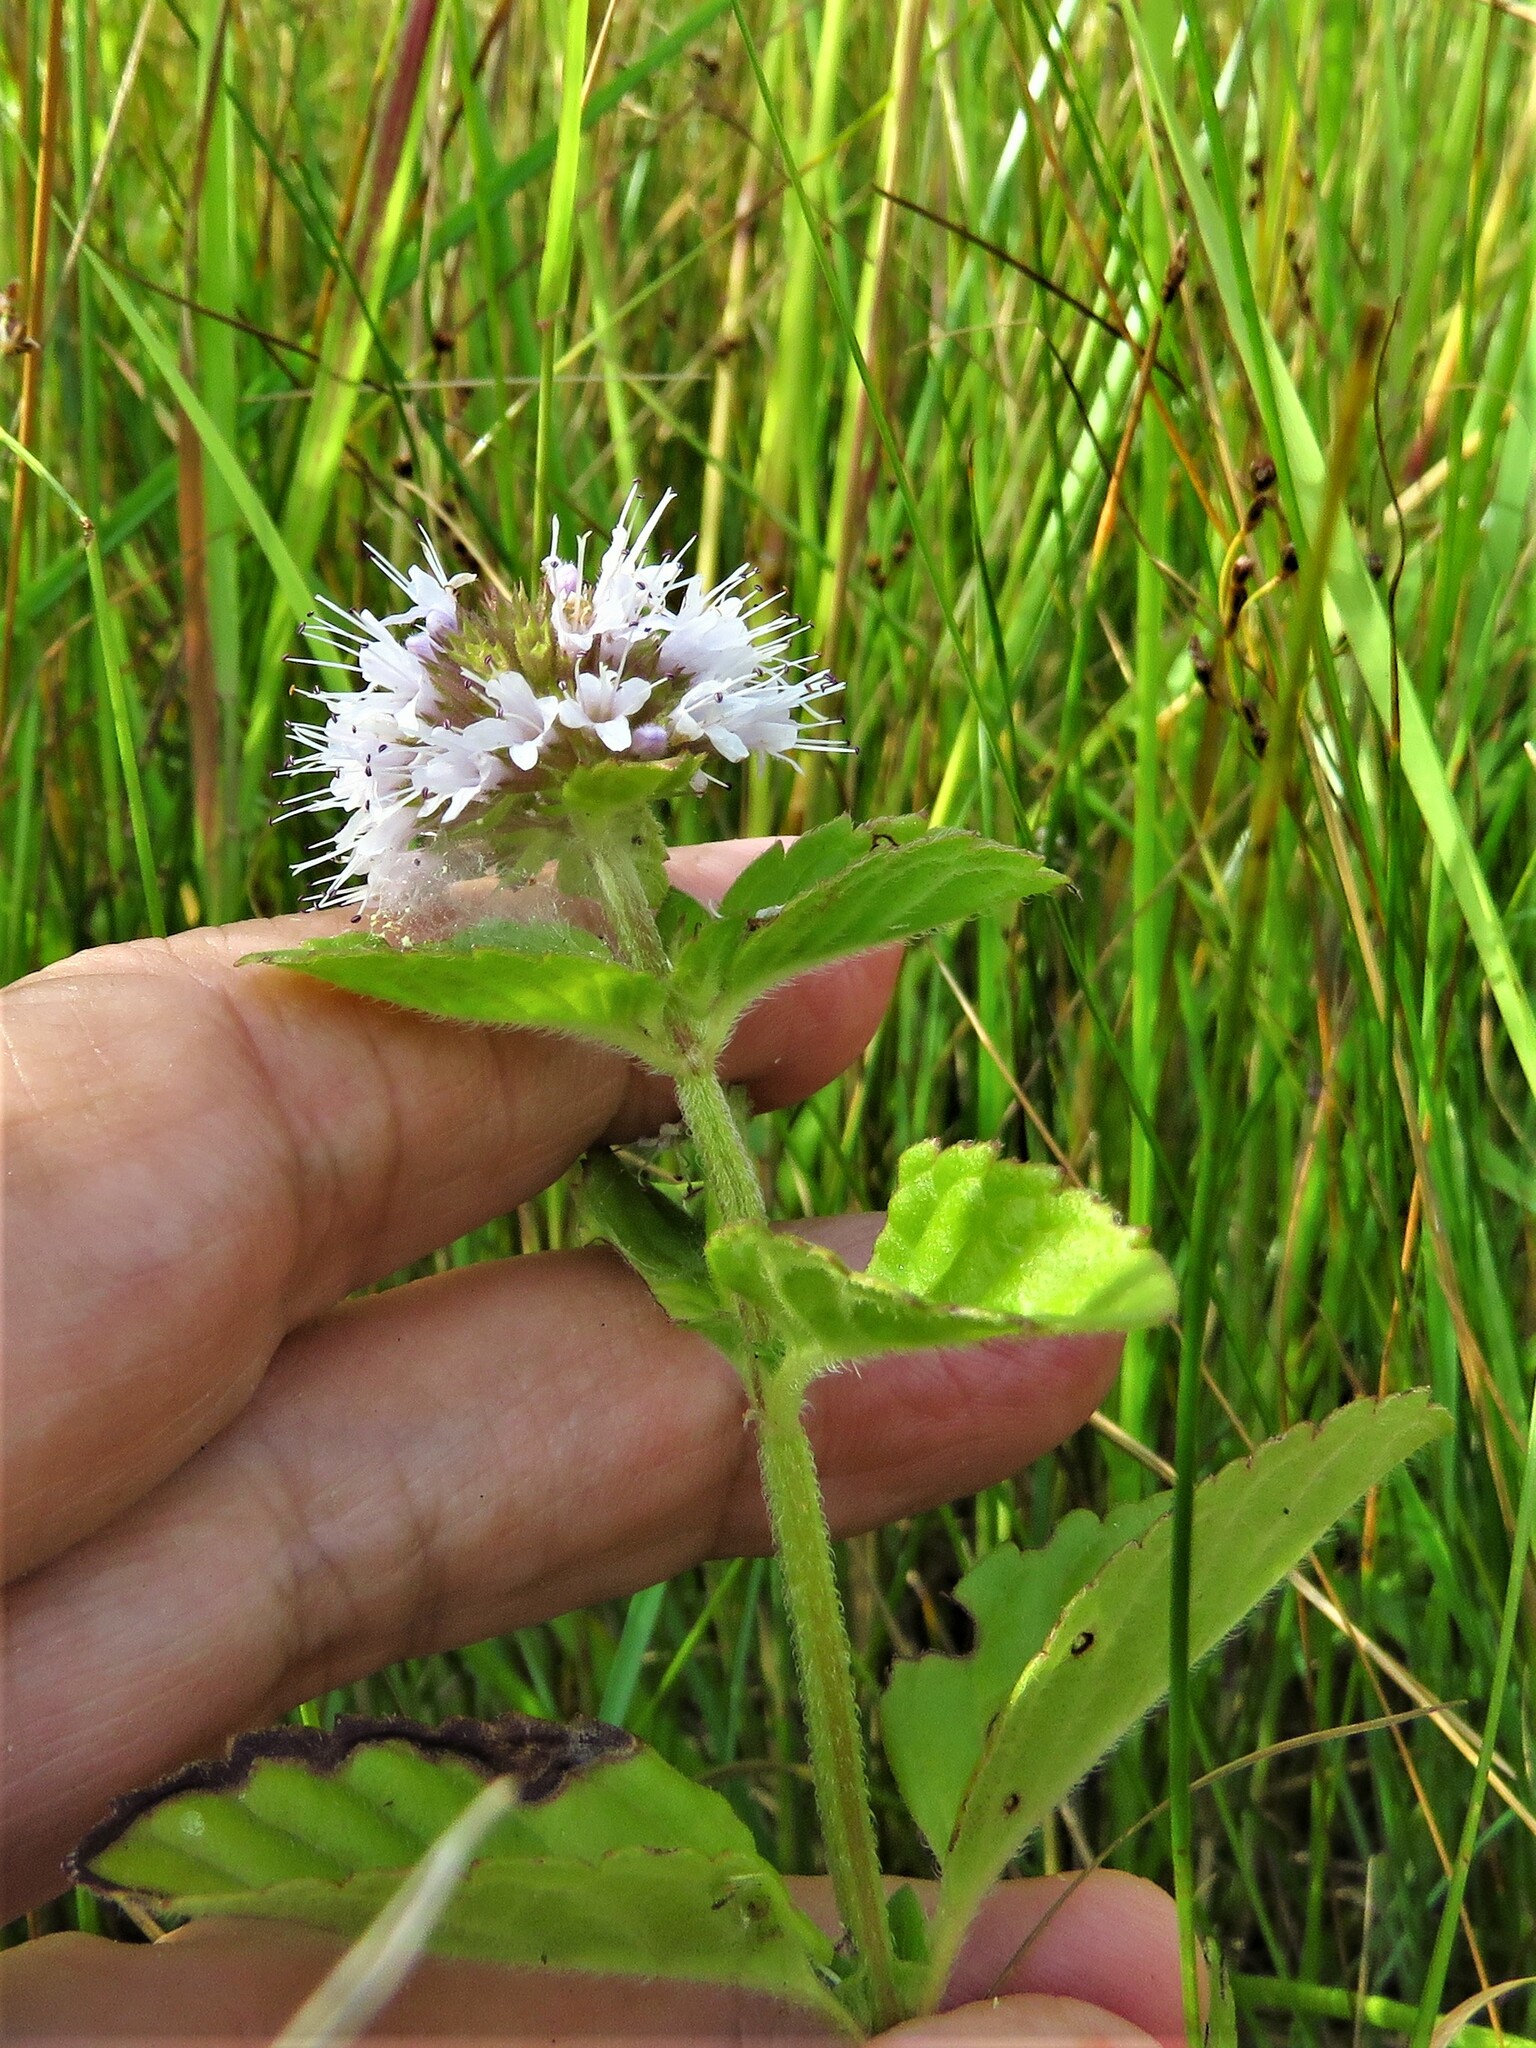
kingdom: Plantae
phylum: Tracheophyta
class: Magnoliopsida
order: Lamiales
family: Lamiaceae
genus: Mentha
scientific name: Mentha aquatica
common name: Water mint
